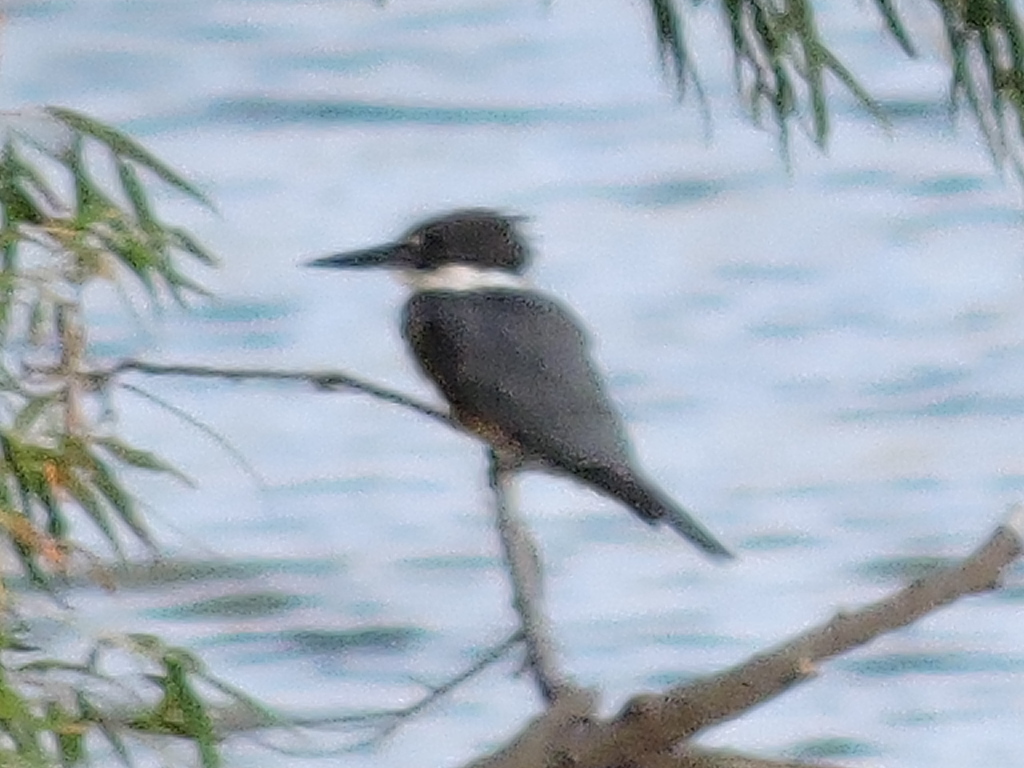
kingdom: Animalia
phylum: Chordata
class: Aves
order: Coraciiformes
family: Alcedinidae
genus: Megaceryle
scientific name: Megaceryle alcyon
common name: Belted kingfisher
